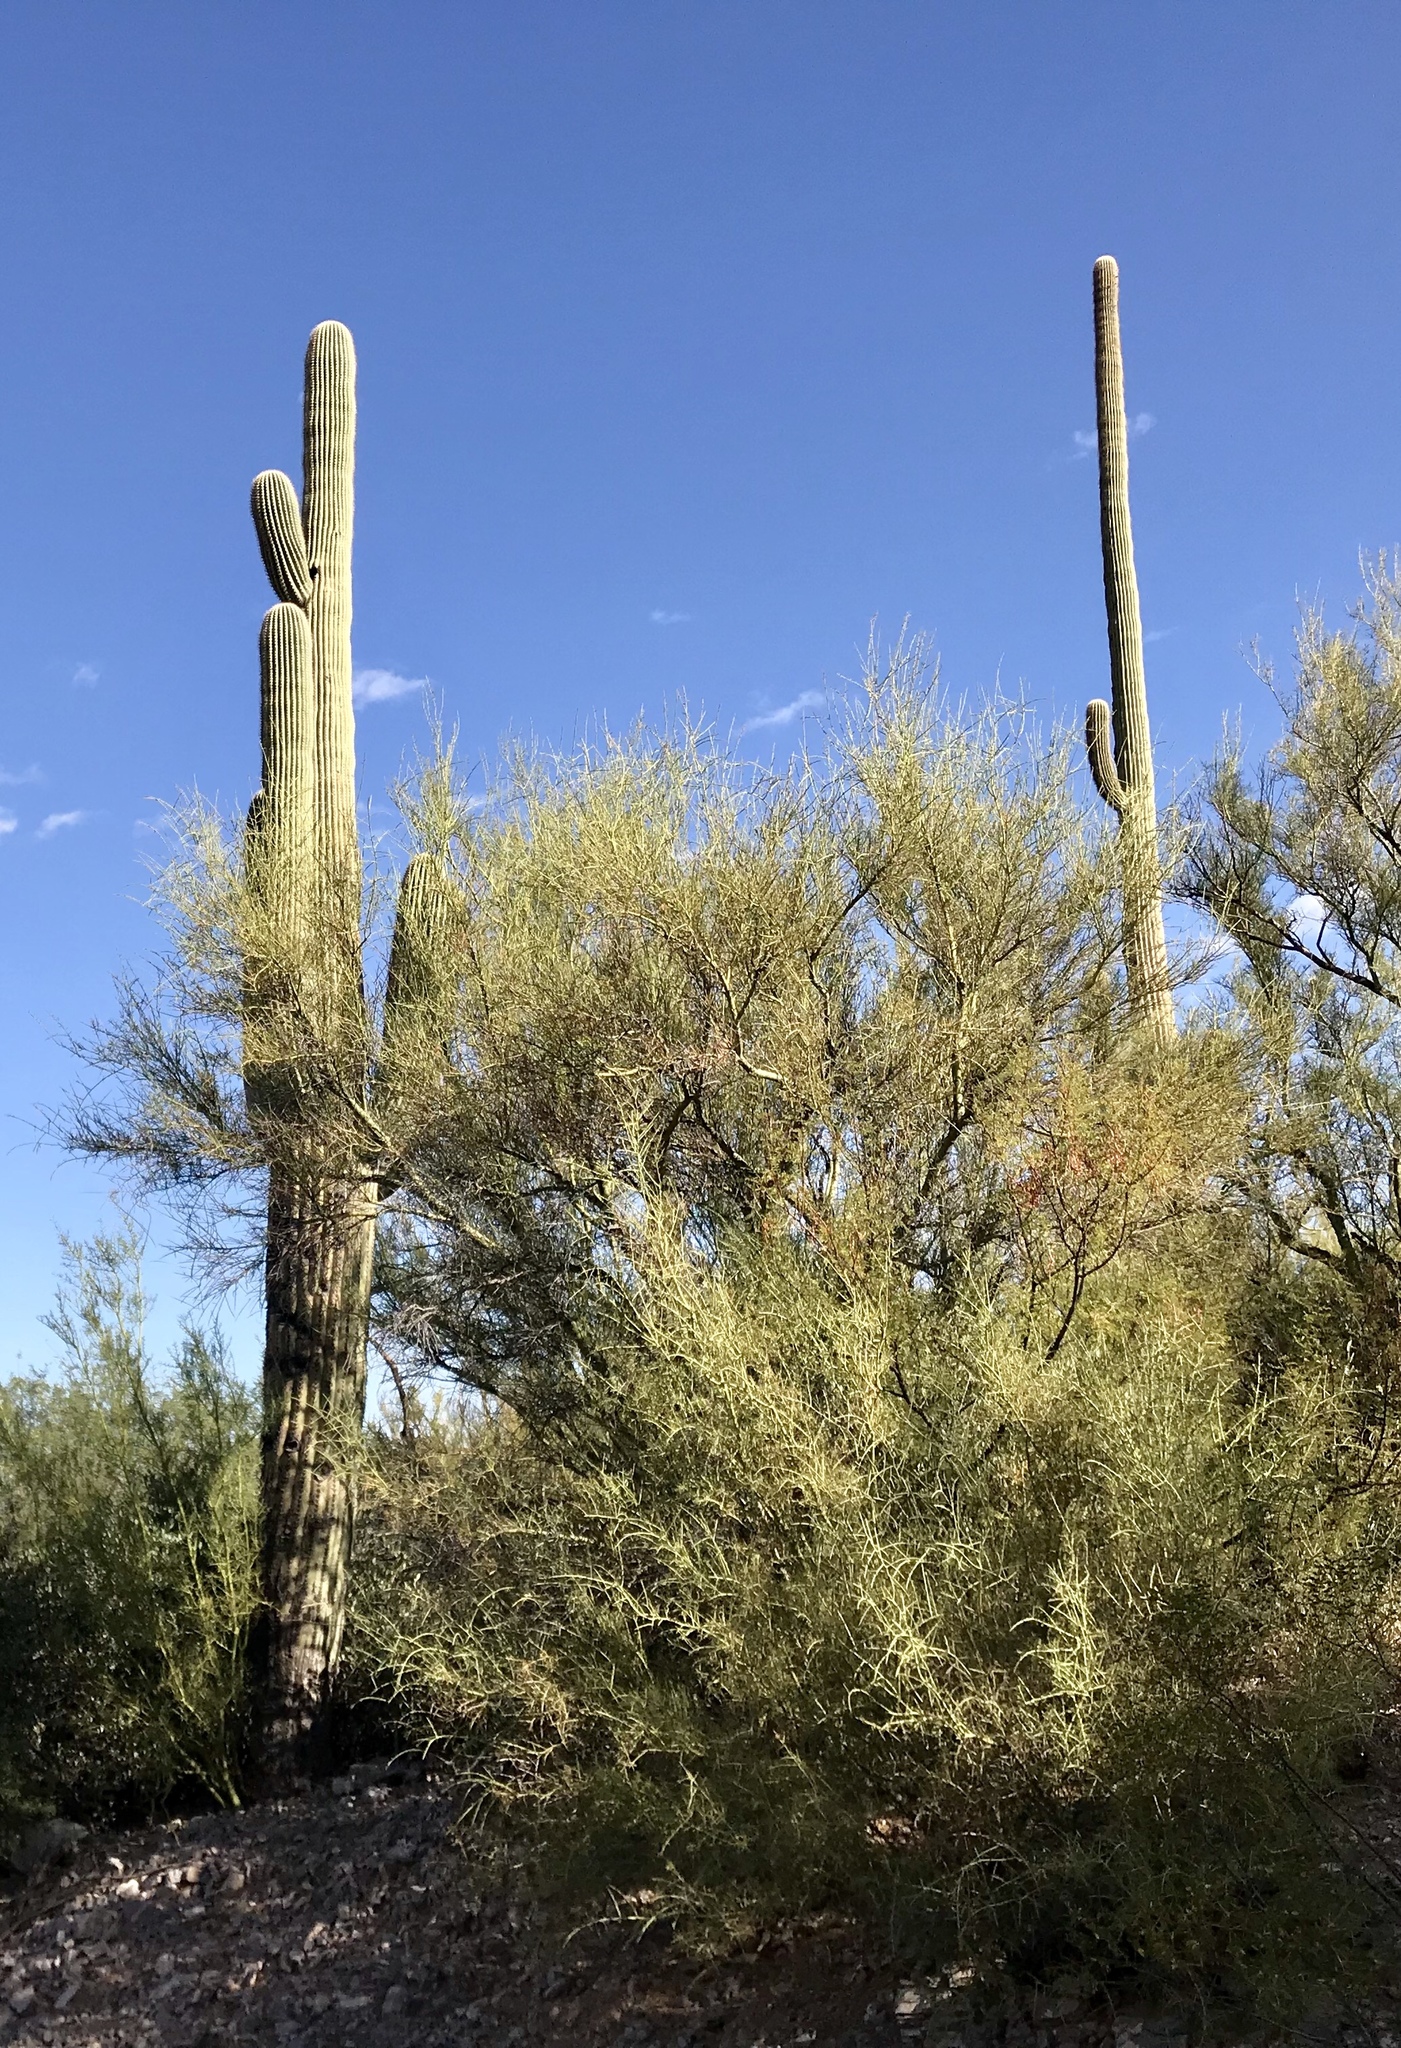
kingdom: Plantae
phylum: Tracheophyta
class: Magnoliopsida
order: Fabales
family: Fabaceae
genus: Parkinsonia
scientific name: Parkinsonia microphylla
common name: Yellow paloverde
